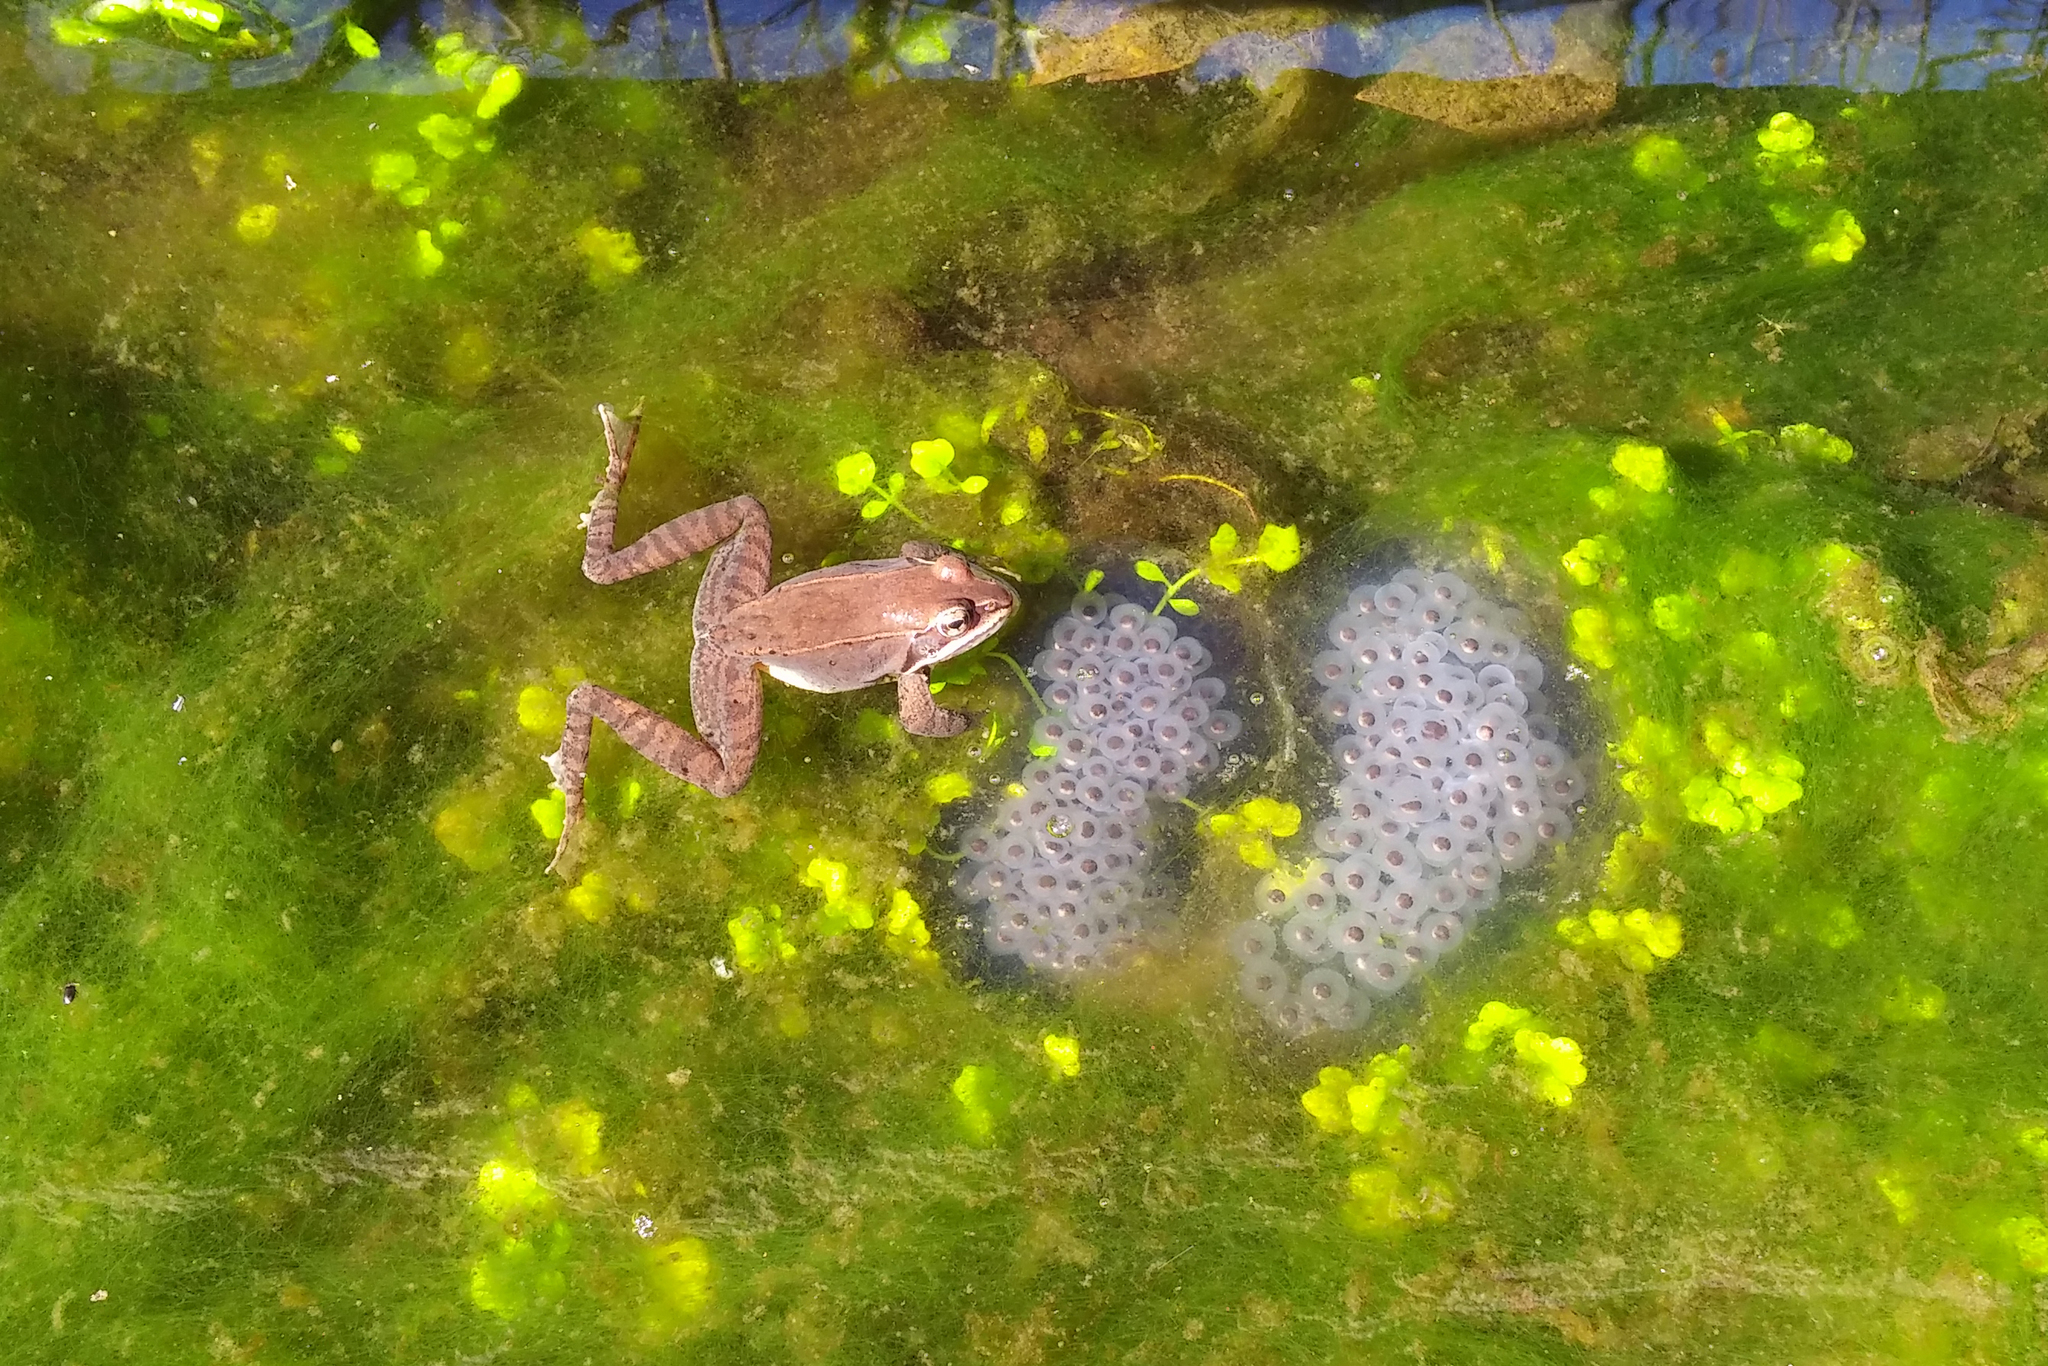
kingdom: Animalia
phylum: Chordata
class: Amphibia
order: Anura
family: Ranidae
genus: Lithobates
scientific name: Lithobates sylvaticus
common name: Wood frog
